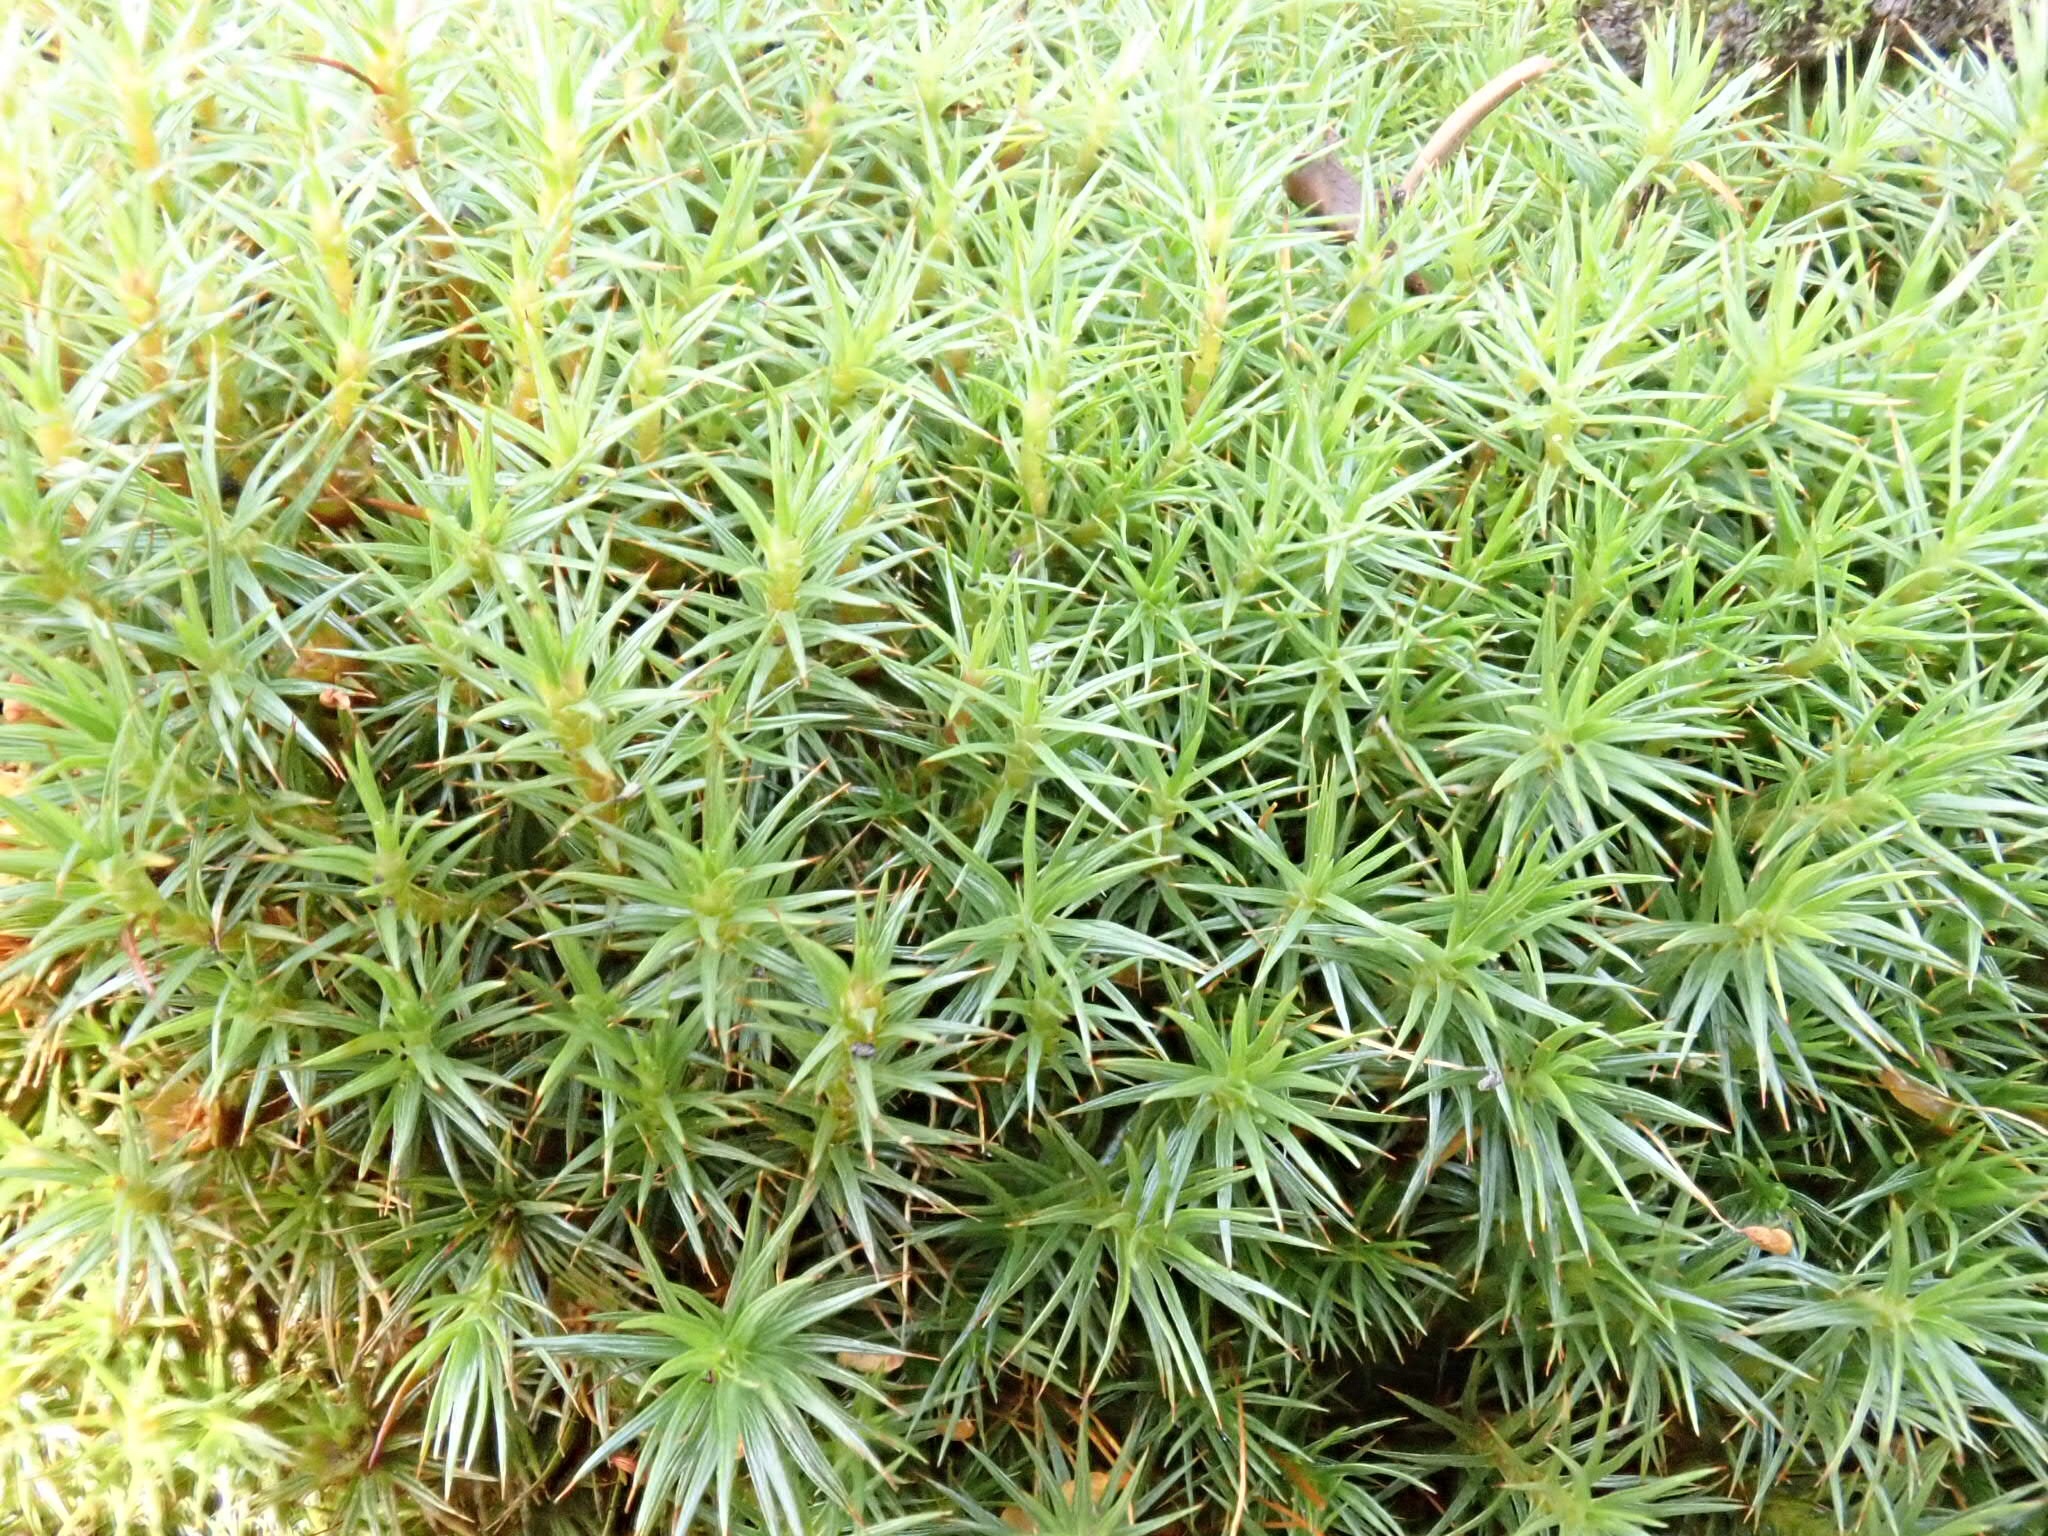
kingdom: Plantae
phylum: Bryophyta
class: Polytrichopsida
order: Polytrichales
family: Polytrichaceae
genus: Polytrichum
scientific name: Polytrichum juniperinum
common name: Juniper haircap moss
